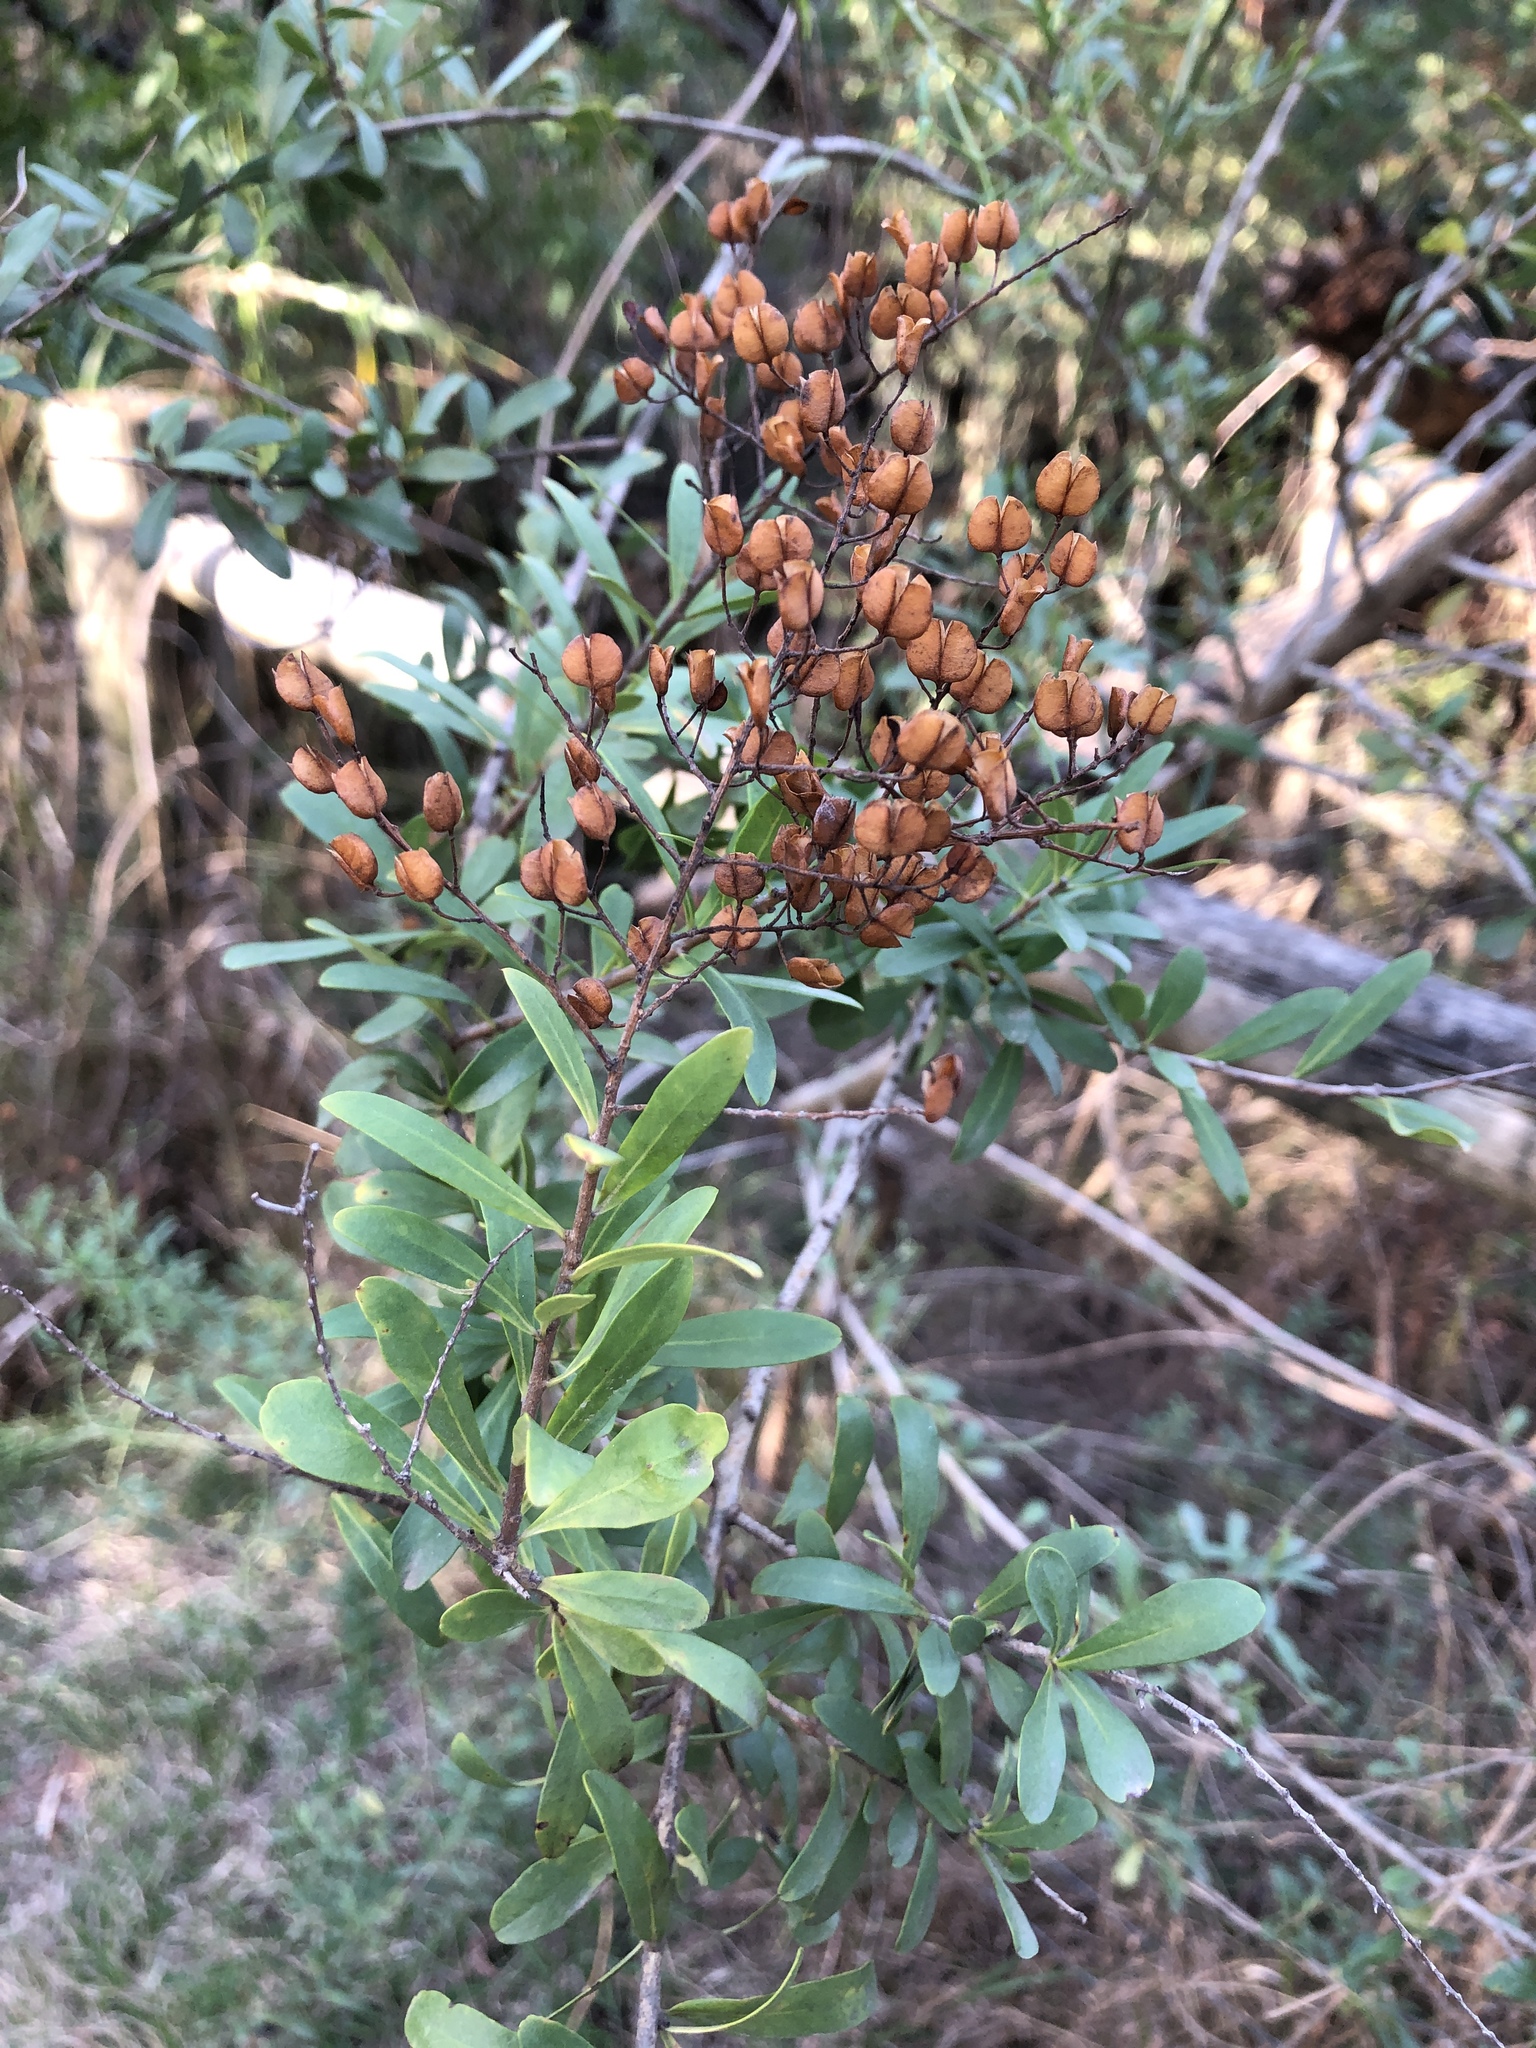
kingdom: Plantae
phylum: Tracheophyta
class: Magnoliopsida
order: Apiales
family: Pittosporaceae
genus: Bursaria
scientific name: Bursaria spinosa
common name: Australian blackthorn
